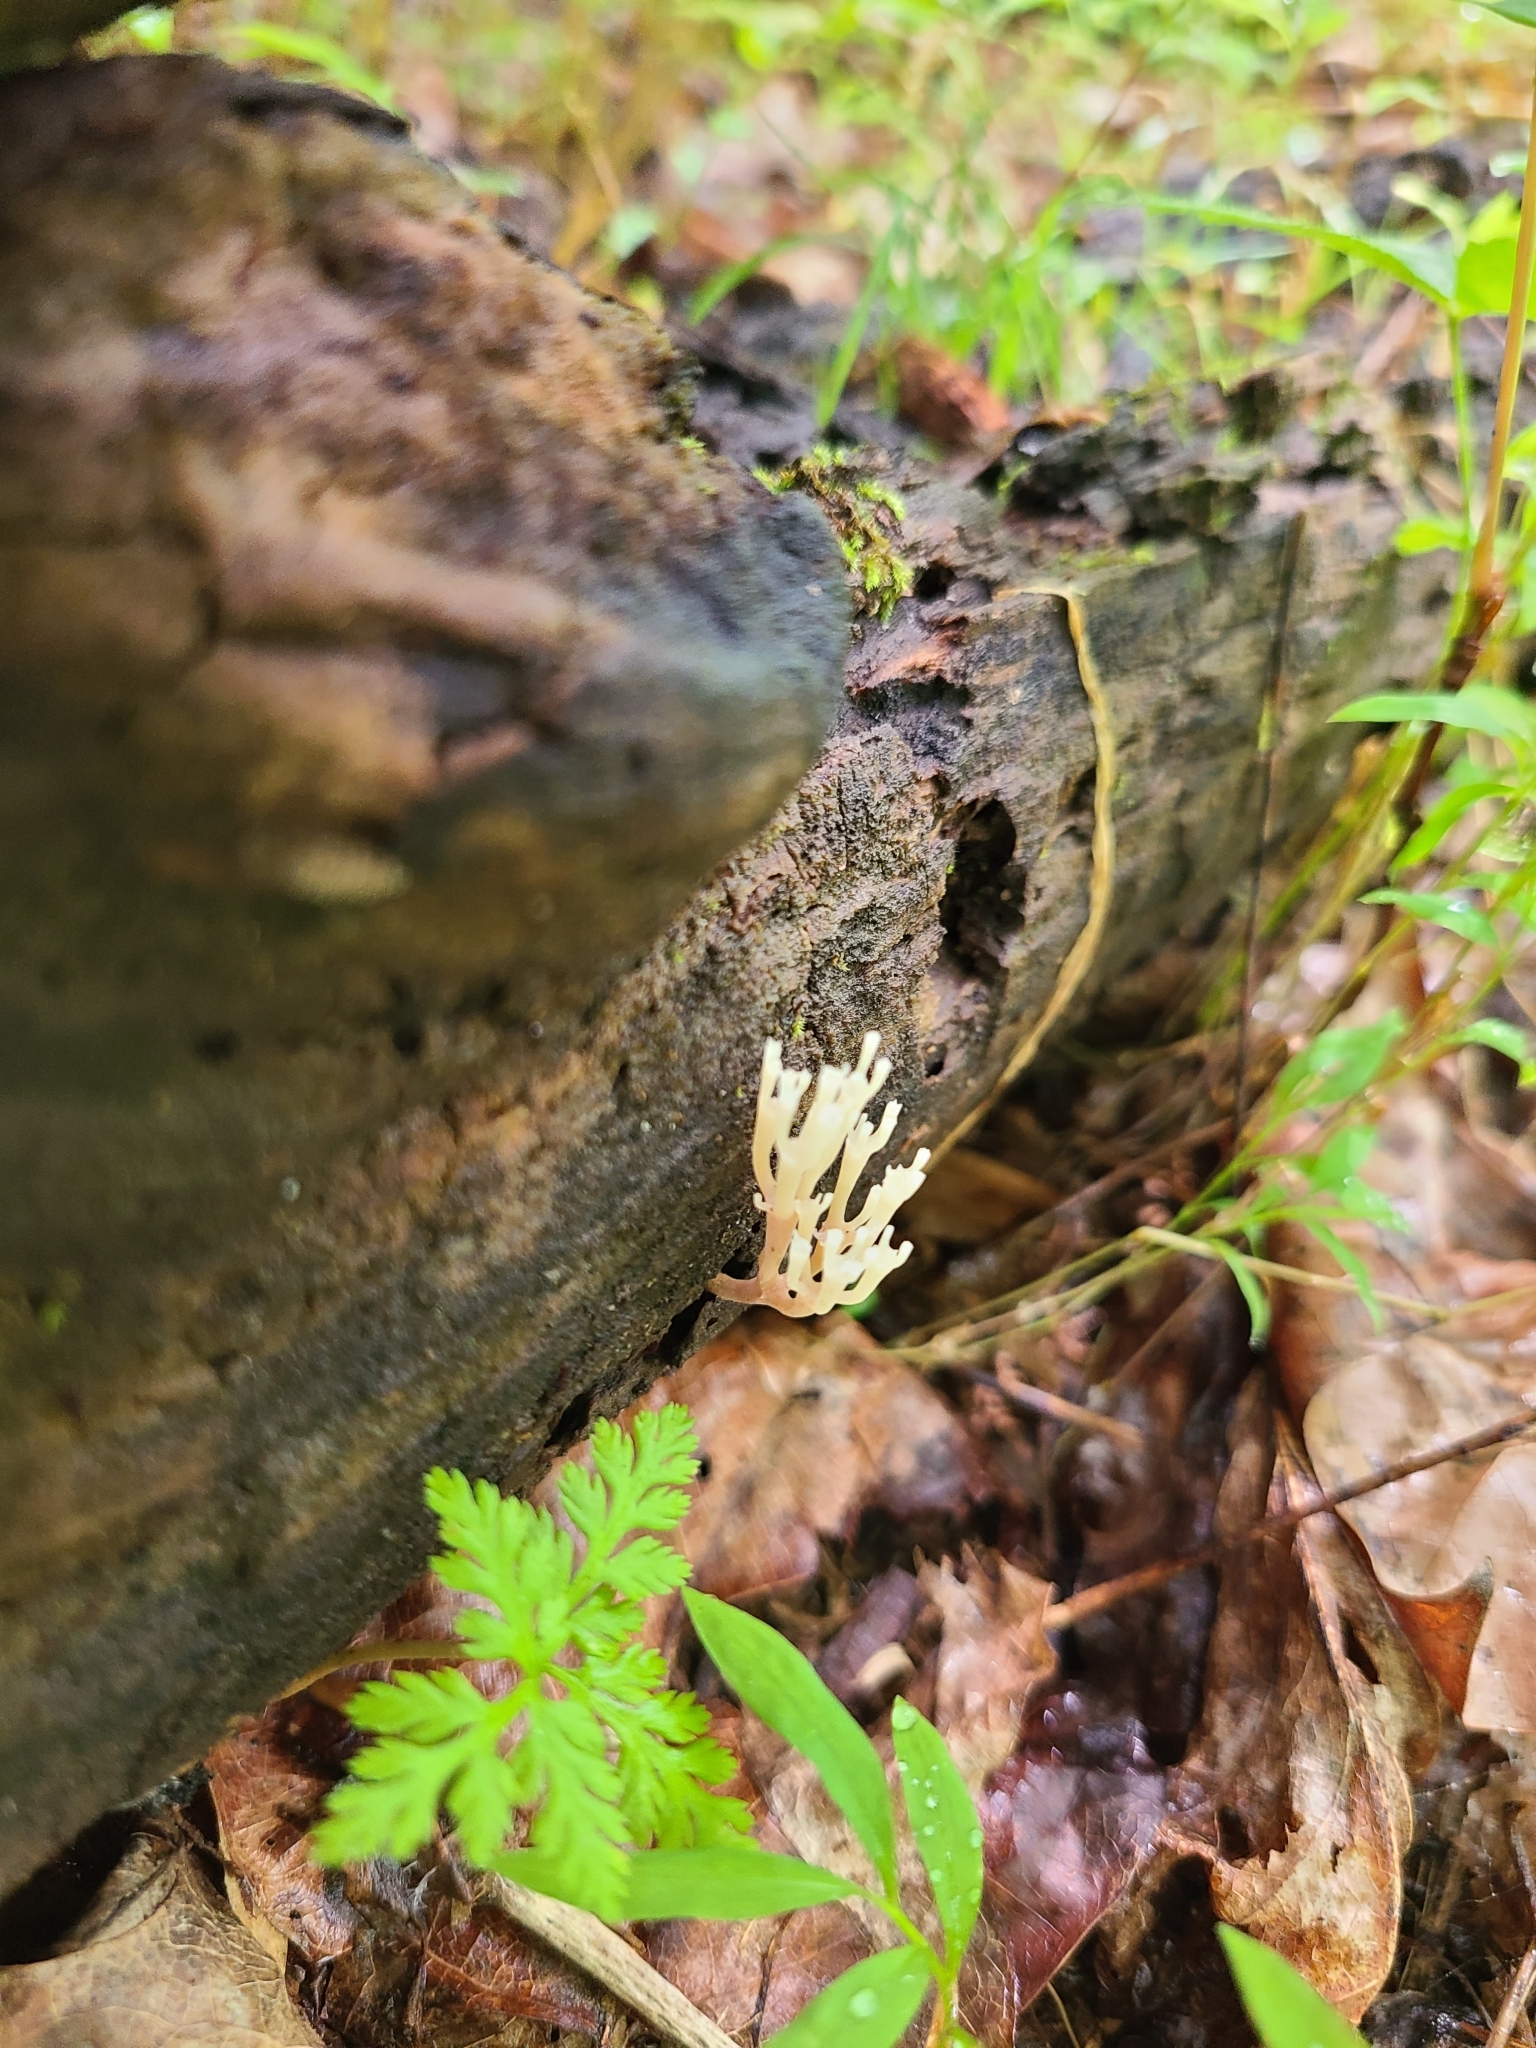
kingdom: Fungi
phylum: Basidiomycota
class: Agaricomycetes
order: Russulales
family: Auriscalpiaceae
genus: Artomyces
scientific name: Artomyces pyxidatus
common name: Crown-tipped coral fungus
